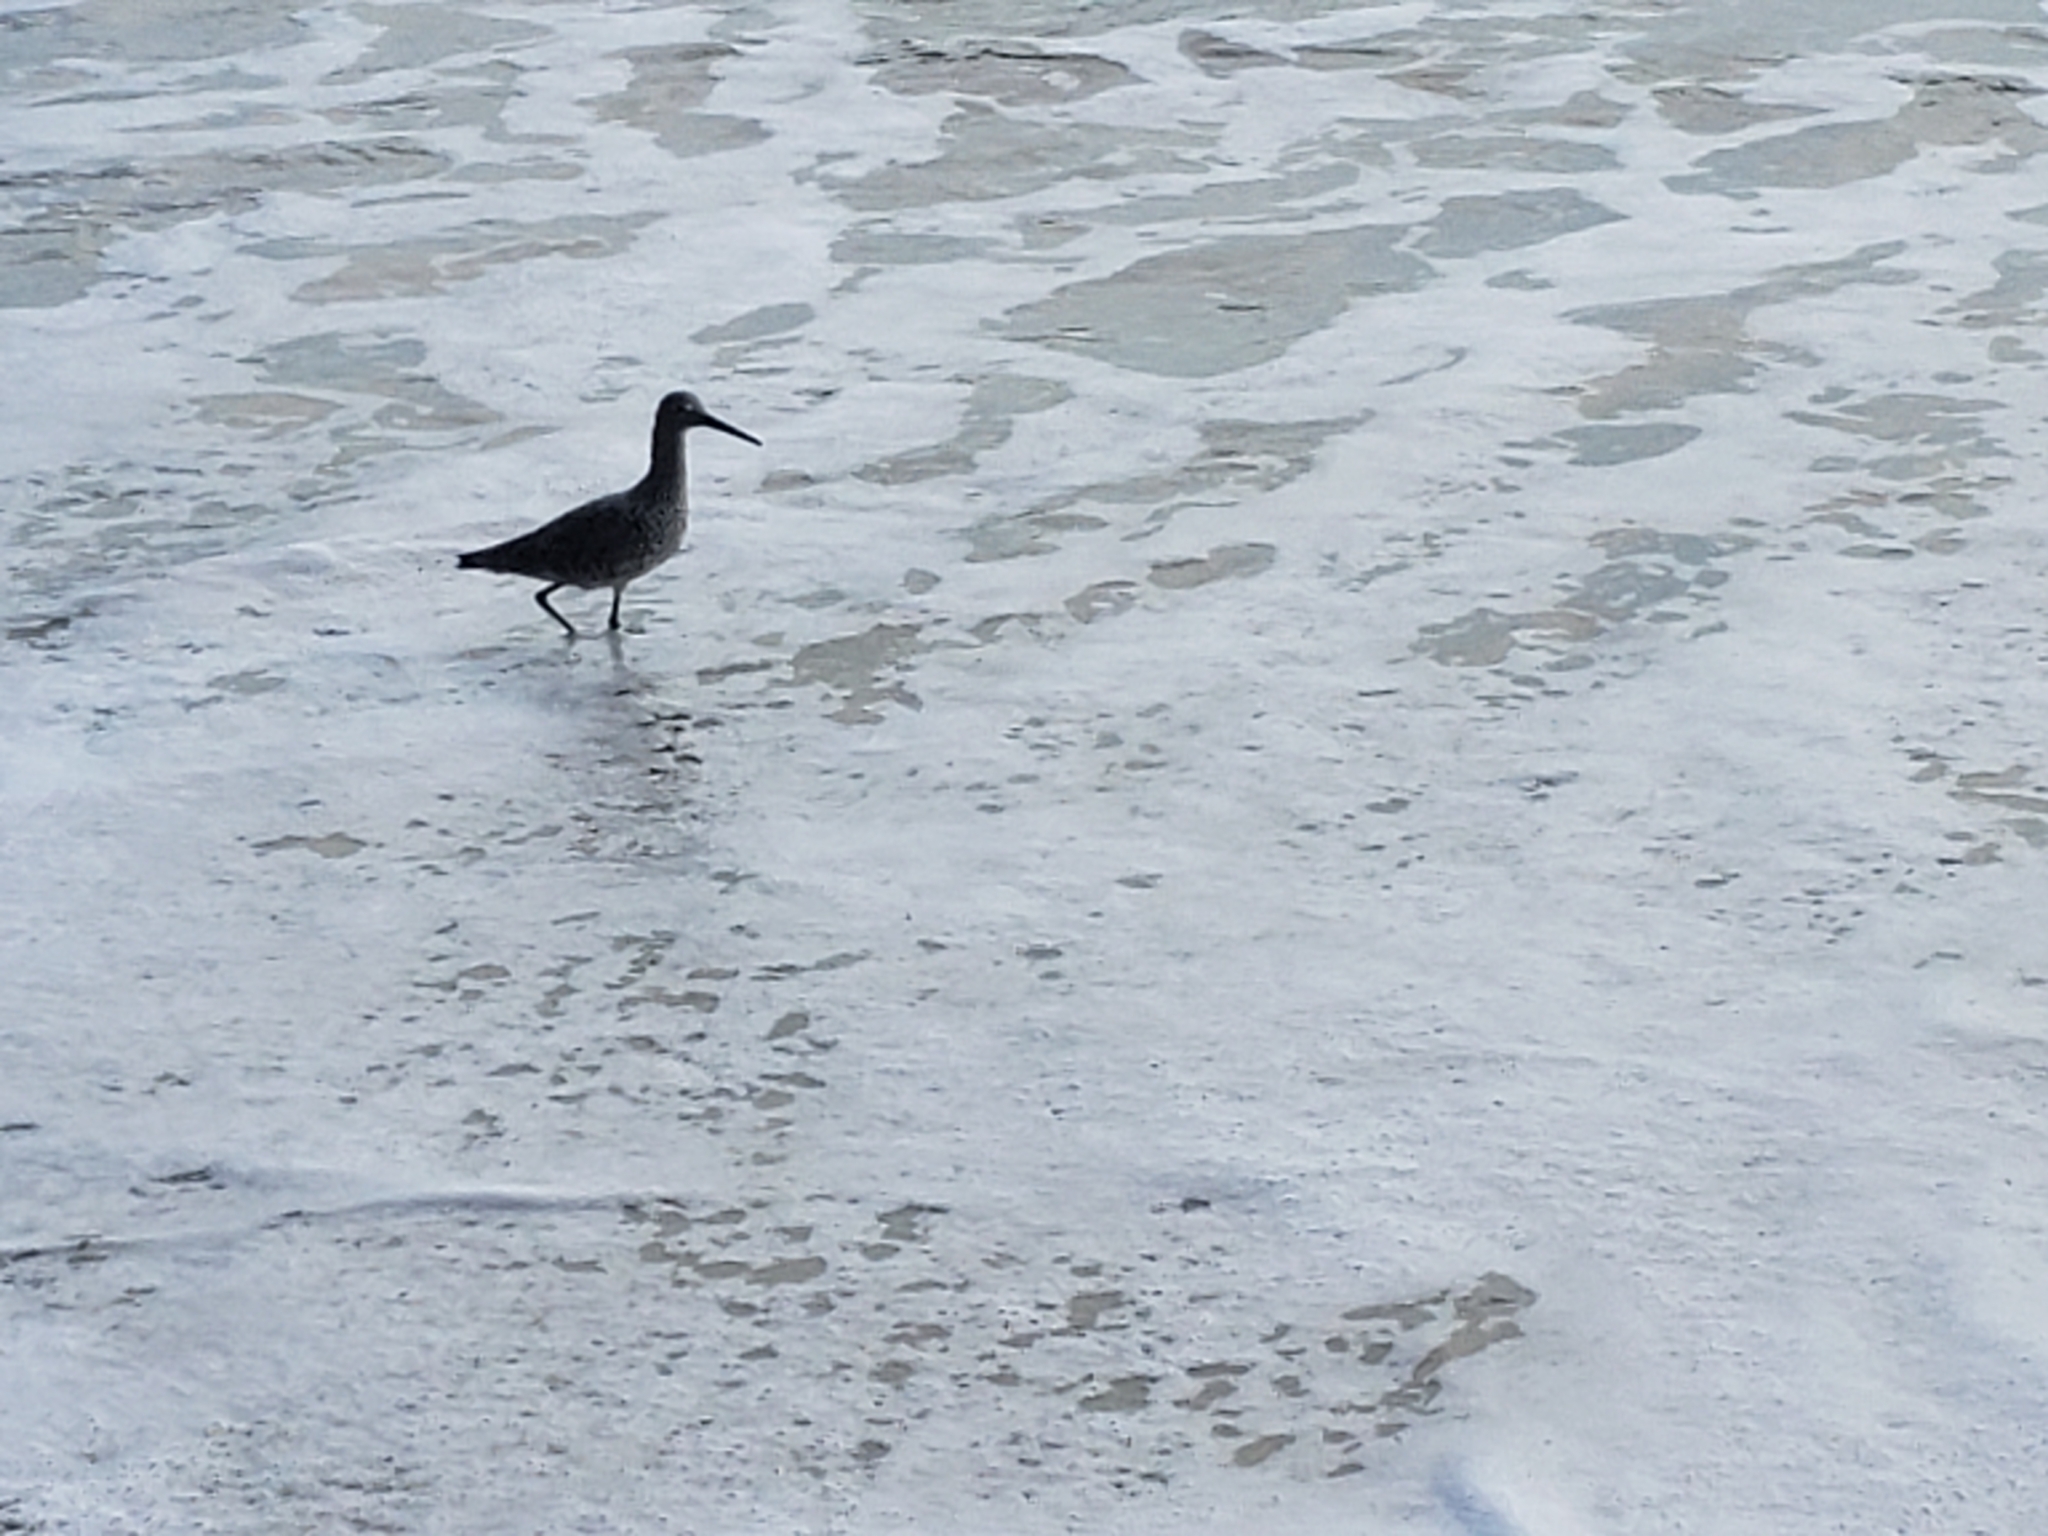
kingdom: Animalia
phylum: Chordata
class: Aves
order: Charadriiformes
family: Scolopacidae
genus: Tringa
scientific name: Tringa semipalmata
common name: Willet
